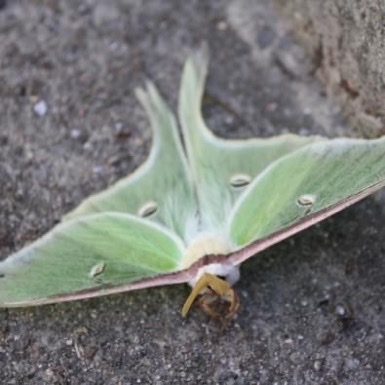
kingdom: Animalia
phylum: Arthropoda
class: Insecta
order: Lepidoptera
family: Saturniidae
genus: Actias
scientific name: Actias luna
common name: Luna moth
